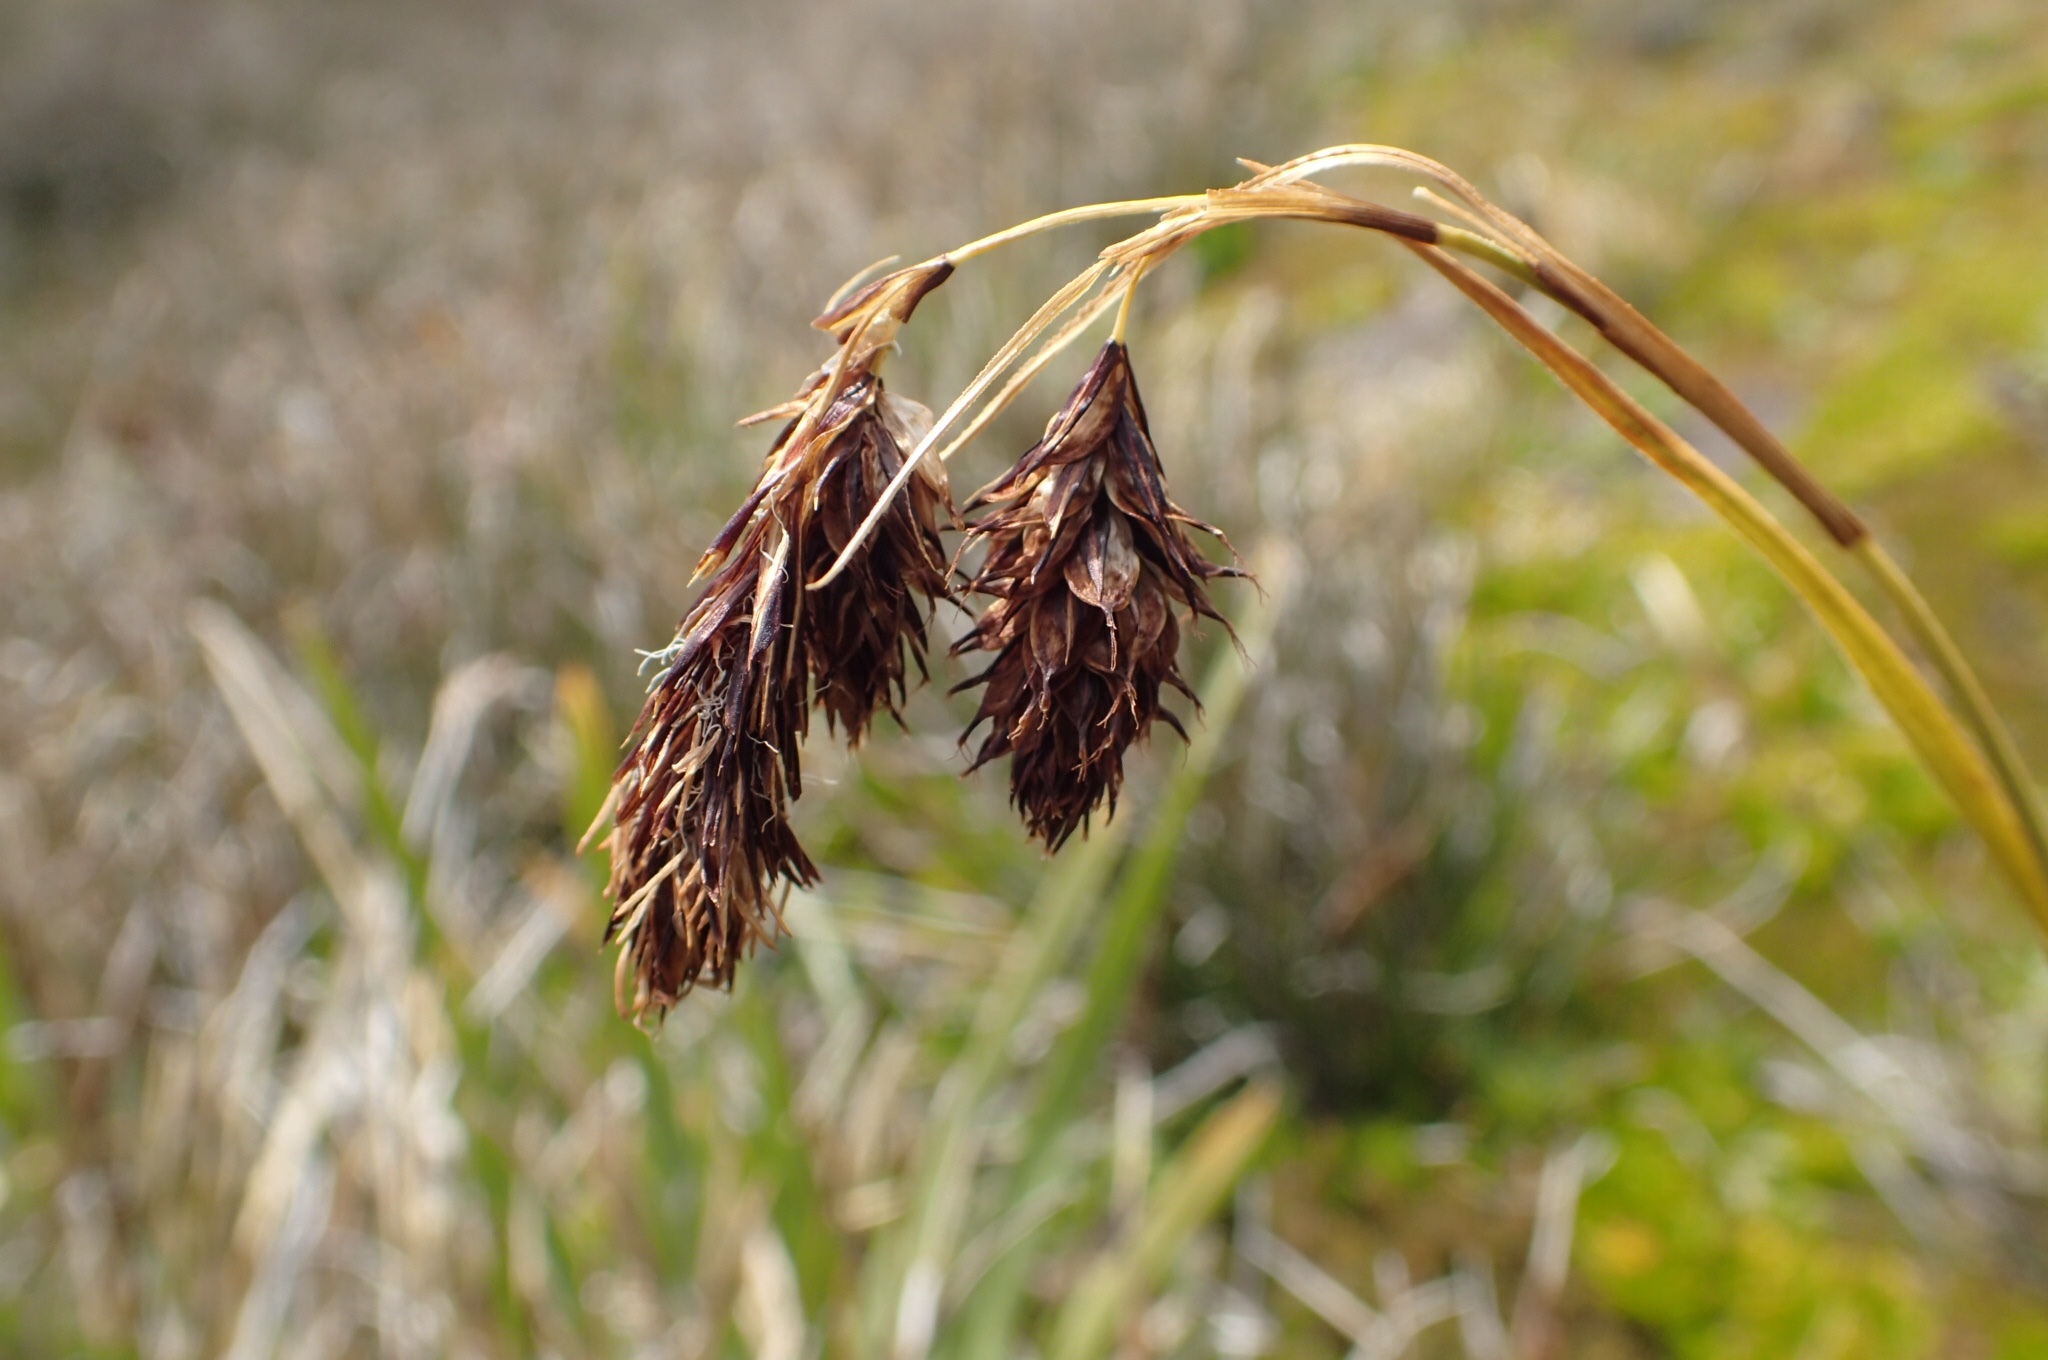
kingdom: Plantae
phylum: Tracheophyta
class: Liliopsida
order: Poales
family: Cyperaceae
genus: Carex
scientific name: Carex banksii
